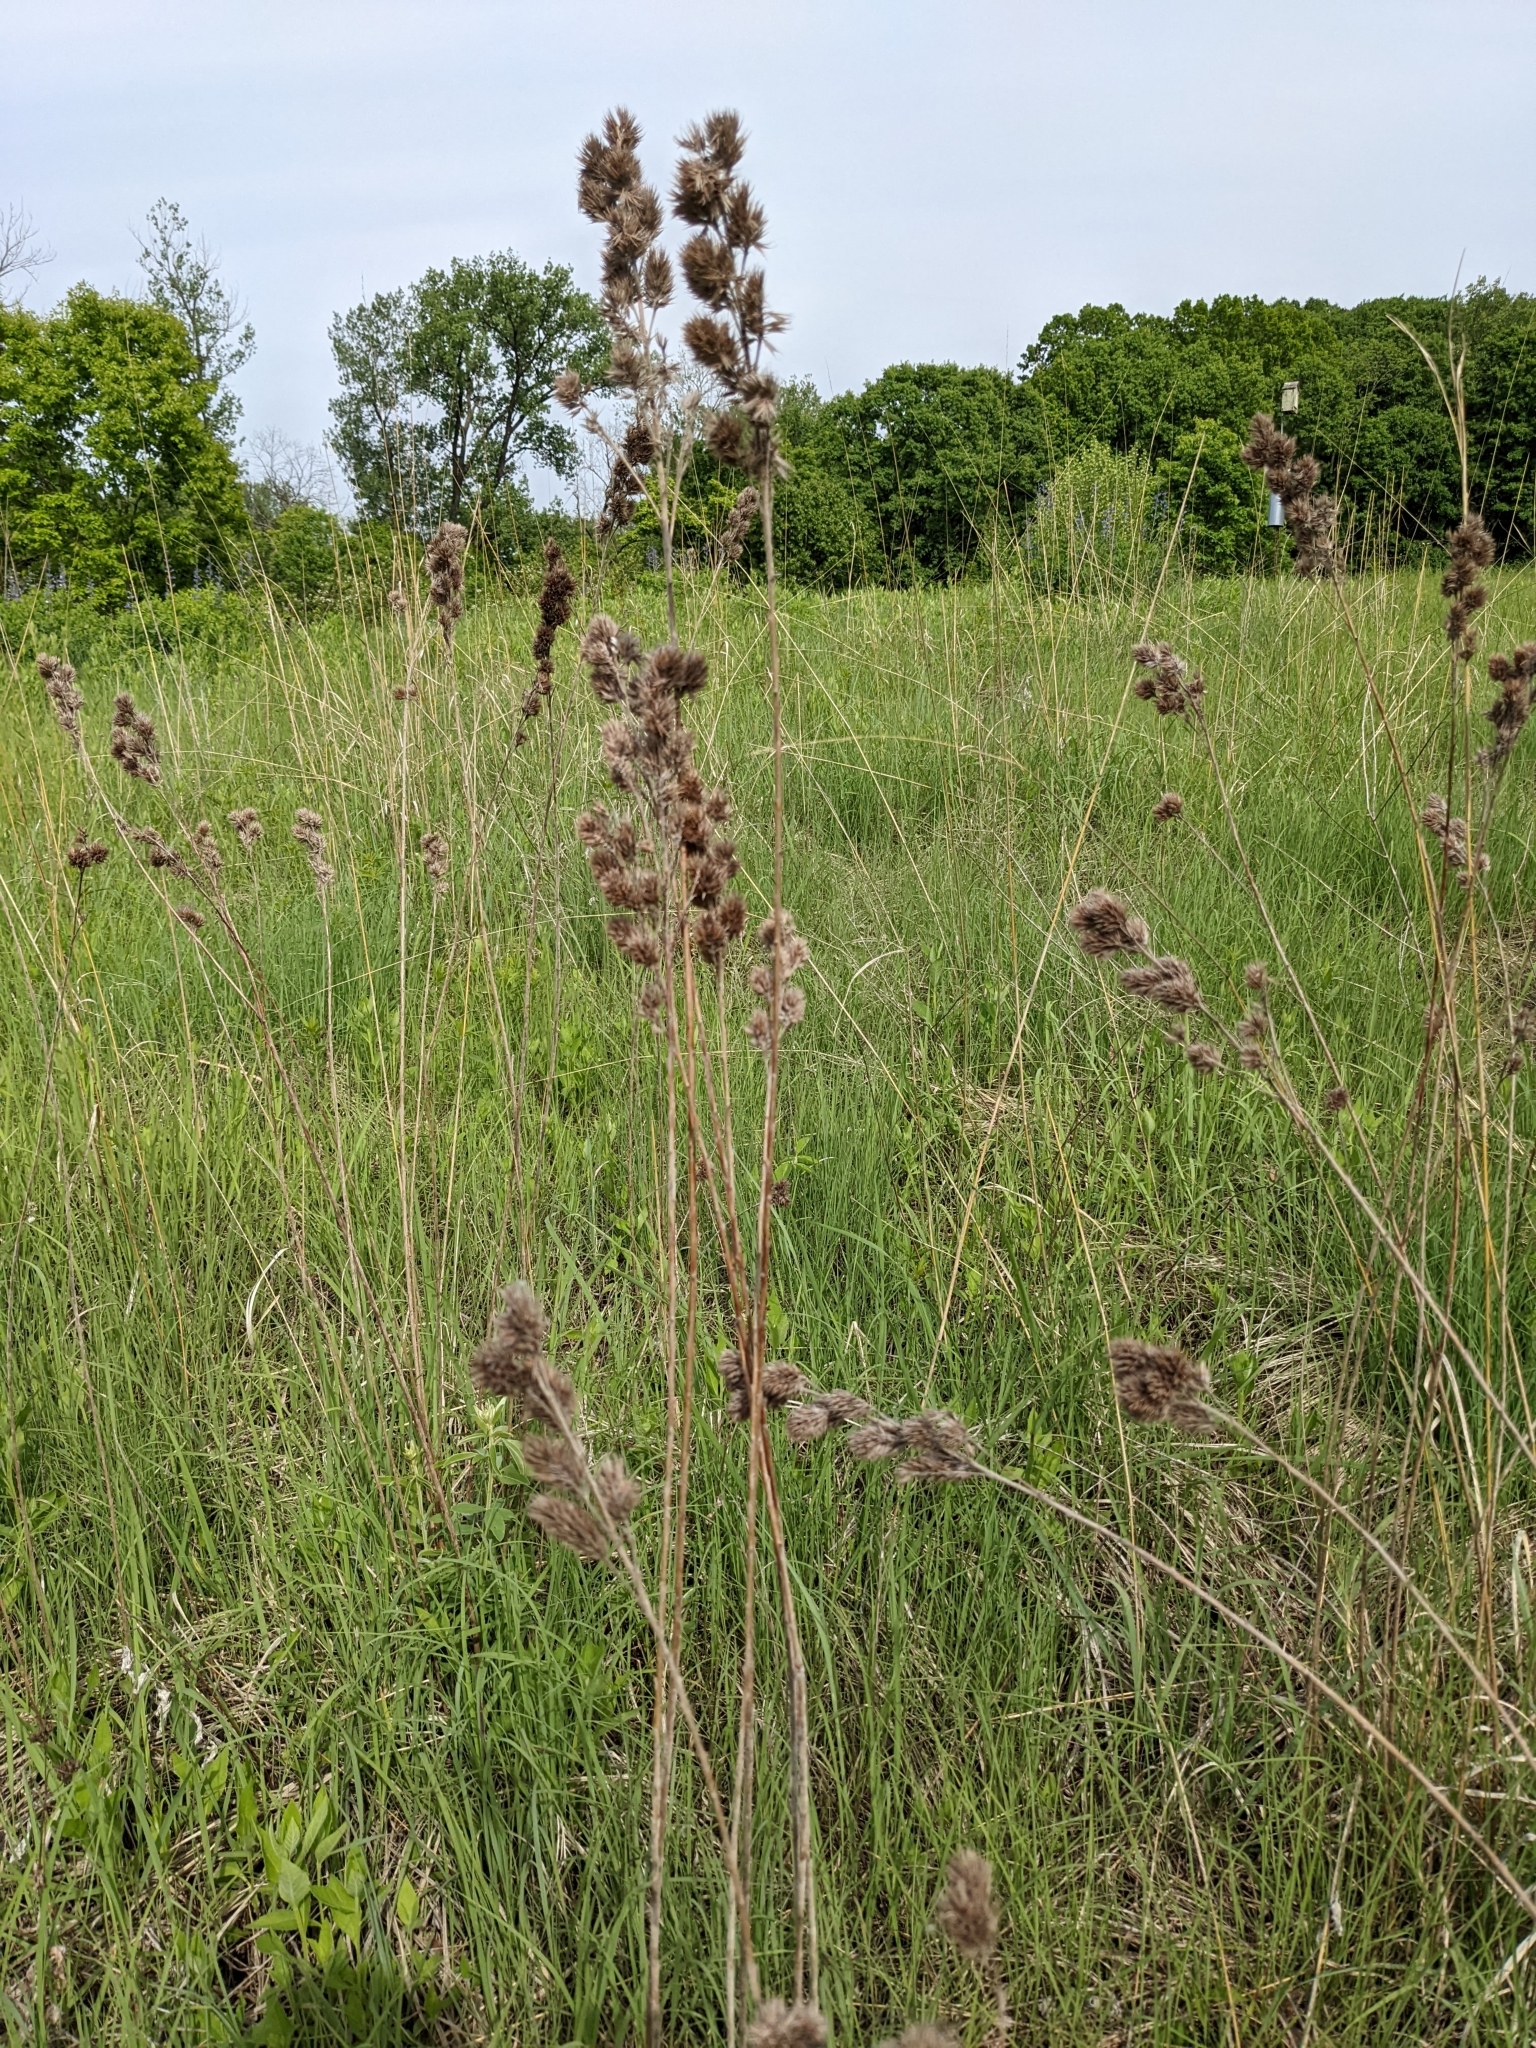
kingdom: Plantae
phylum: Tracheophyta
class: Magnoliopsida
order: Fabales
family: Fabaceae
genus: Lespedeza
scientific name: Lespedeza capitata
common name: Dusty clover
